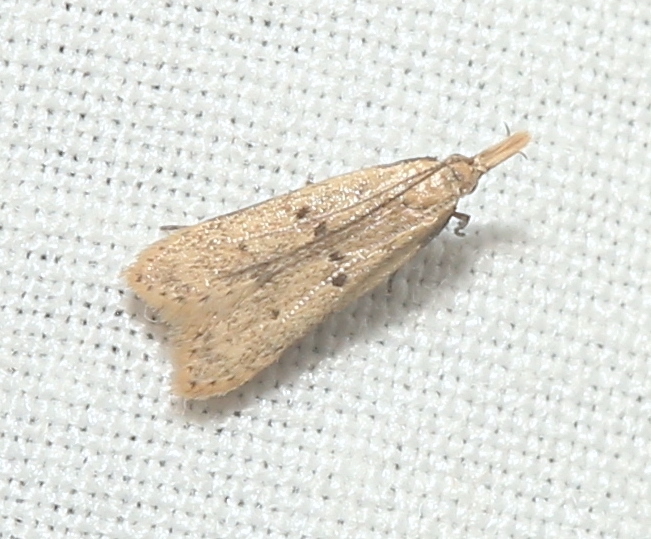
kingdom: Animalia
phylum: Arthropoda
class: Insecta
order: Lepidoptera
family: Gelechiidae
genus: Dichomeris
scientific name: Dichomeris punctipennella
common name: Many-spotted dichomeris moth
